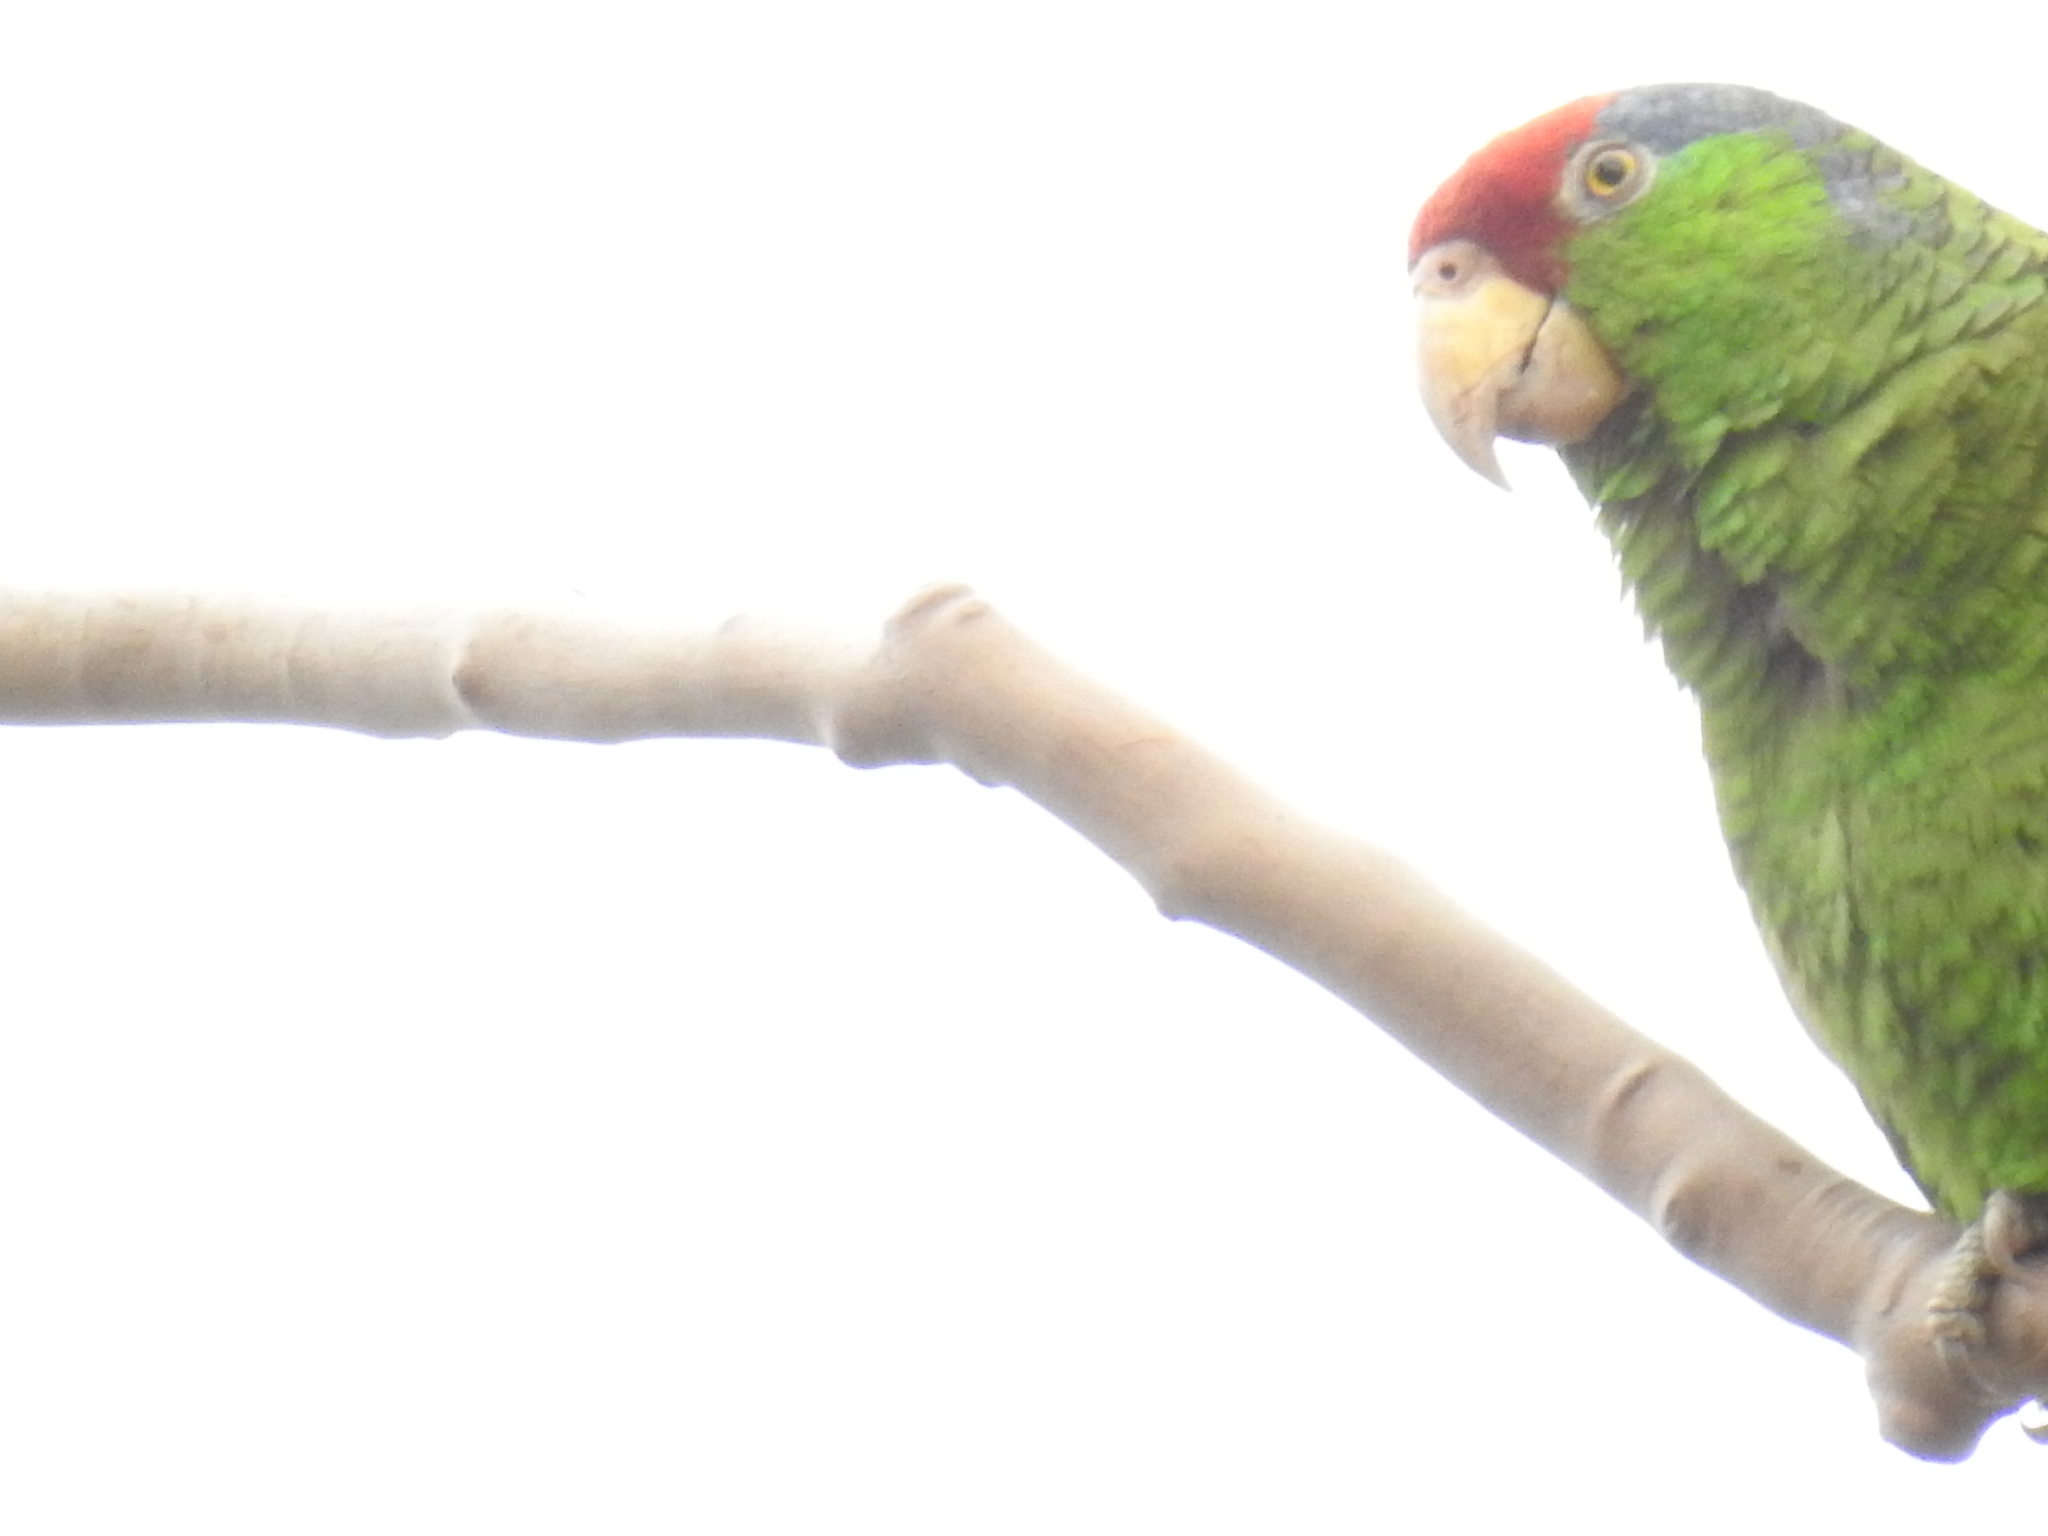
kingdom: Animalia
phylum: Chordata
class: Aves
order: Psittaciformes
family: Psittacidae
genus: Amazona
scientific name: Amazona viridigenalis
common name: Red-crowned amazon
